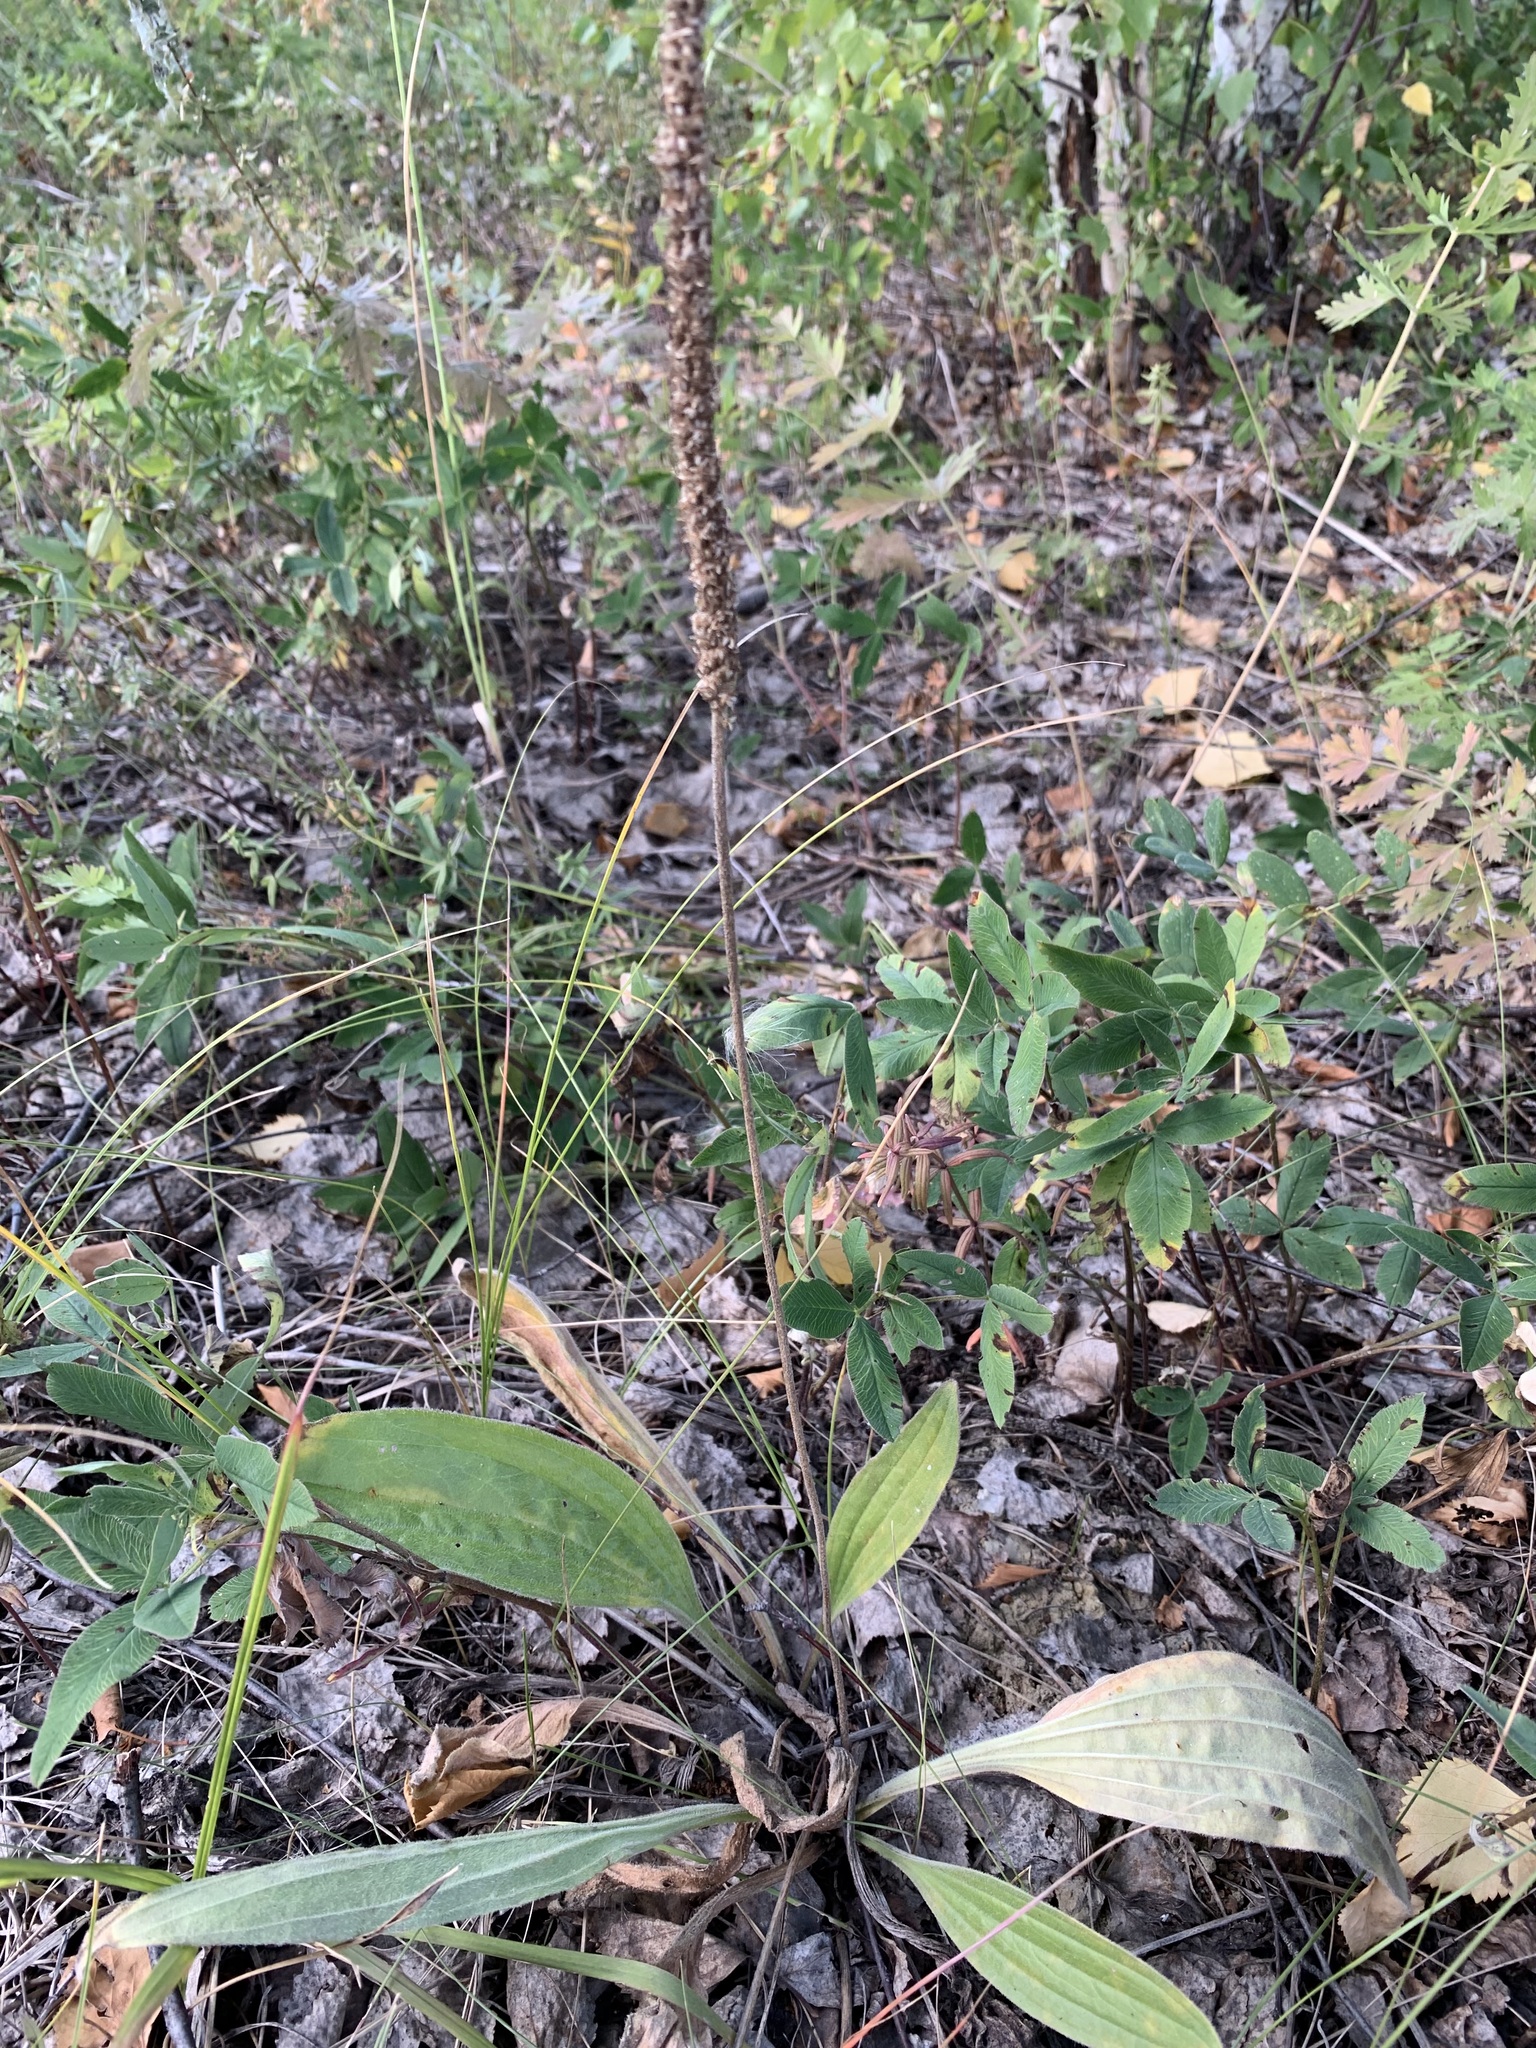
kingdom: Plantae
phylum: Tracheophyta
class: Magnoliopsida
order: Lamiales
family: Plantaginaceae
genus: Plantago
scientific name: Plantago urvillei
